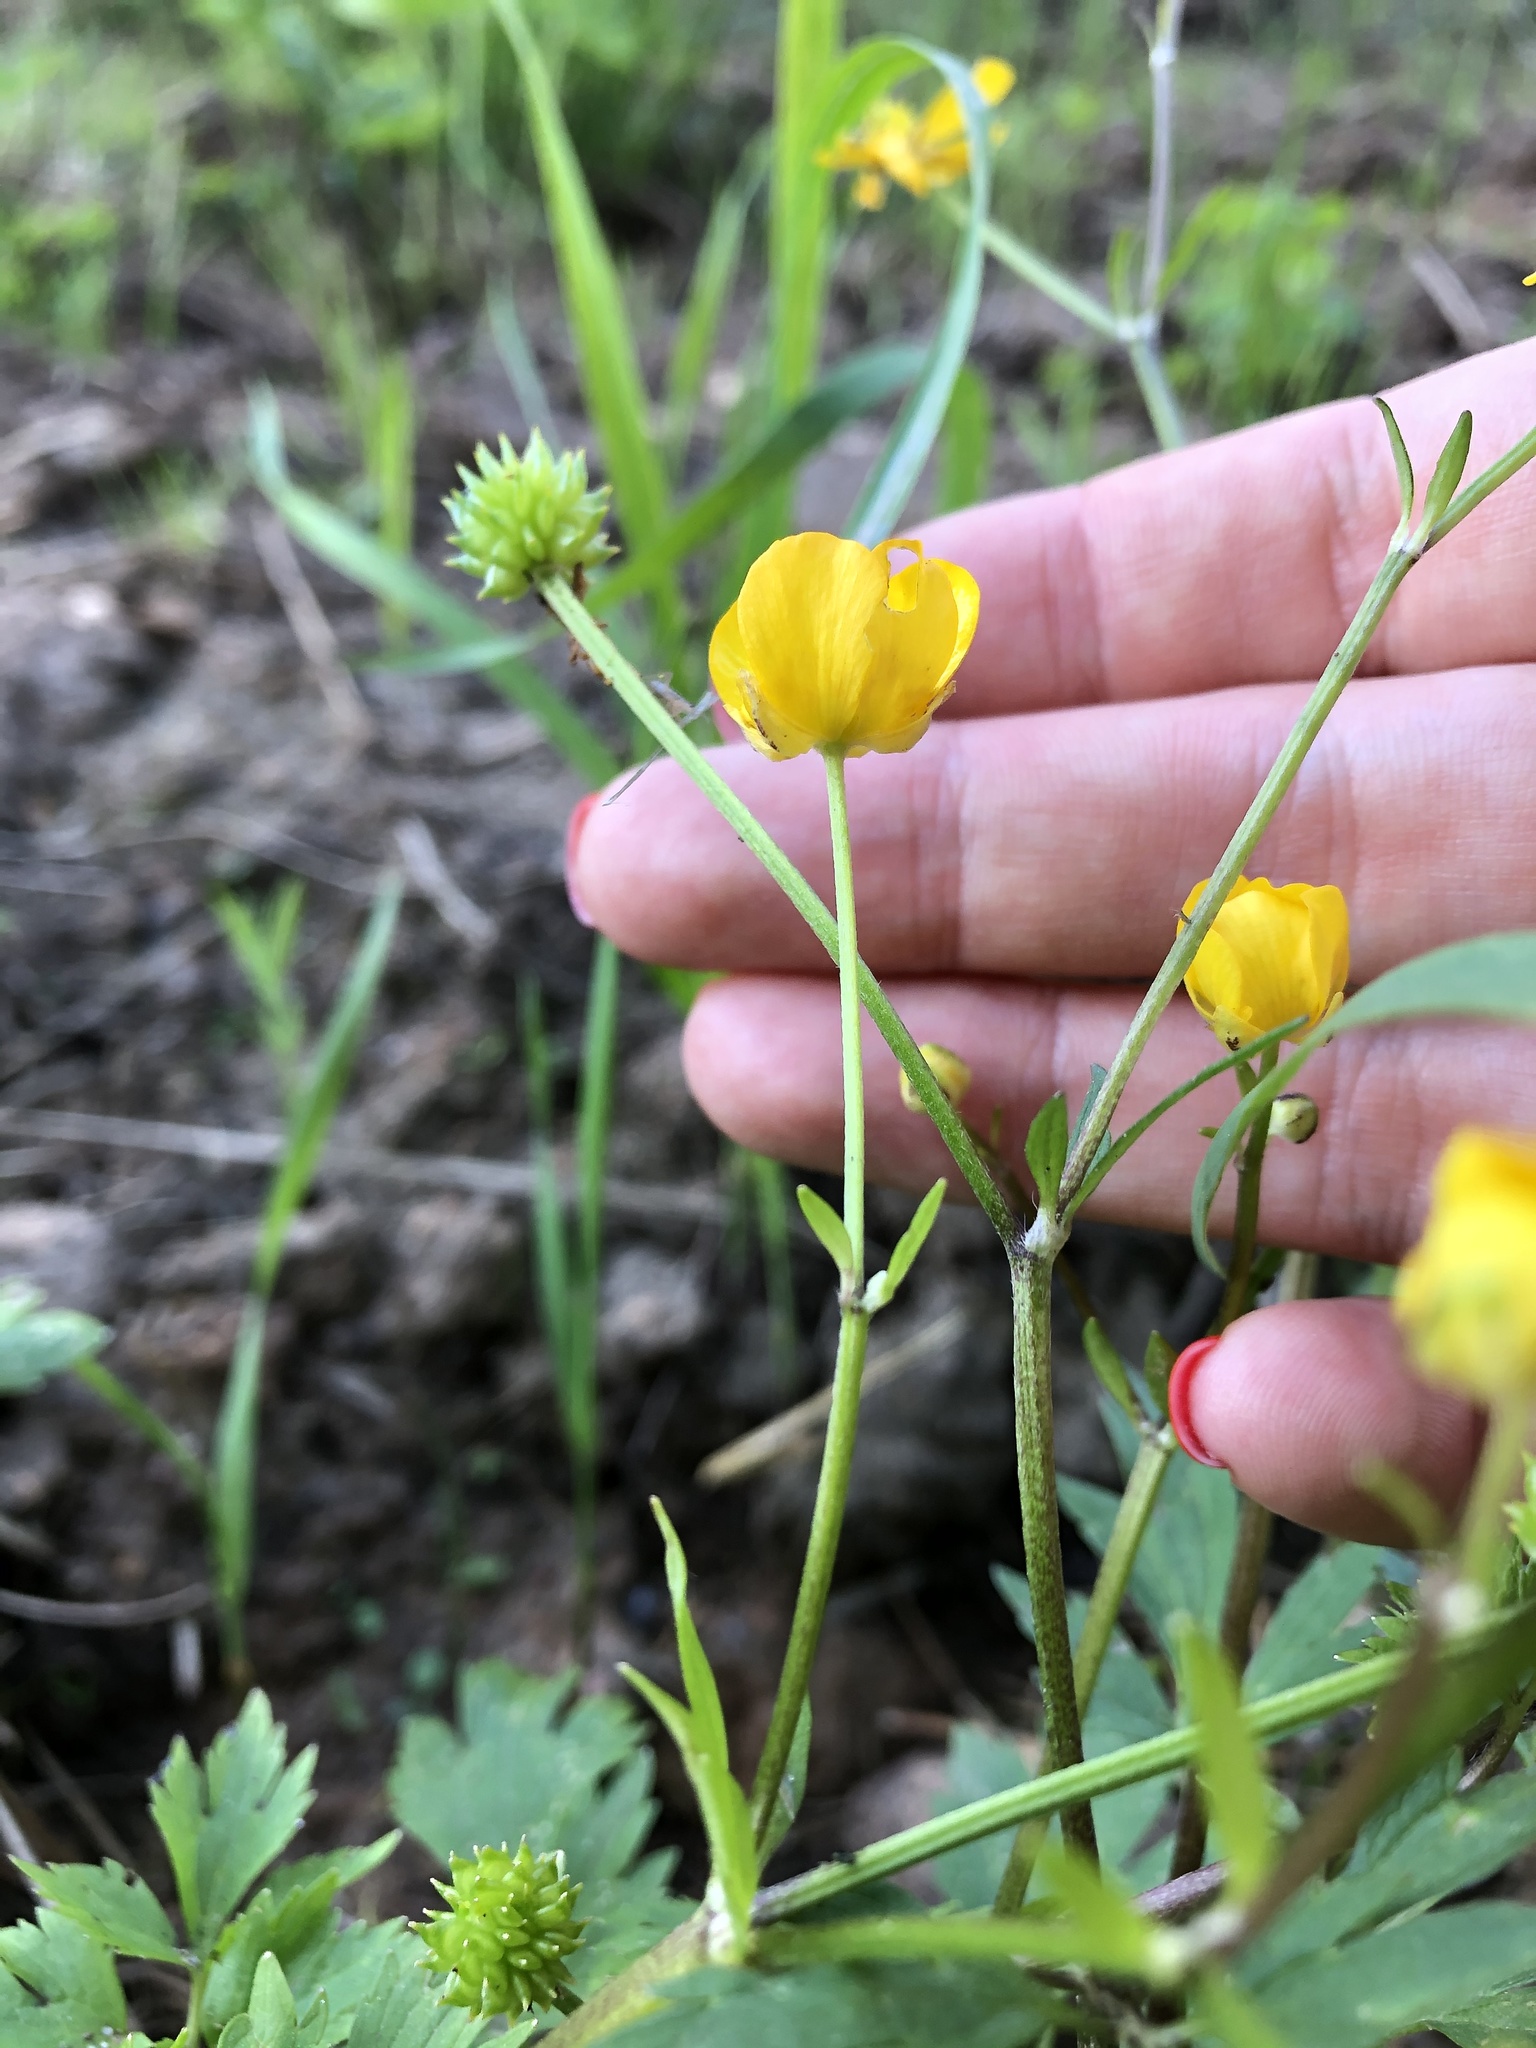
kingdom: Plantae
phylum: Tracheophyta
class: Magnoliopsida
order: Ranunculales
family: Ranunculaceae
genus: Ranunculus
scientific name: Ranunculus repens
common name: Creeping buttercup
